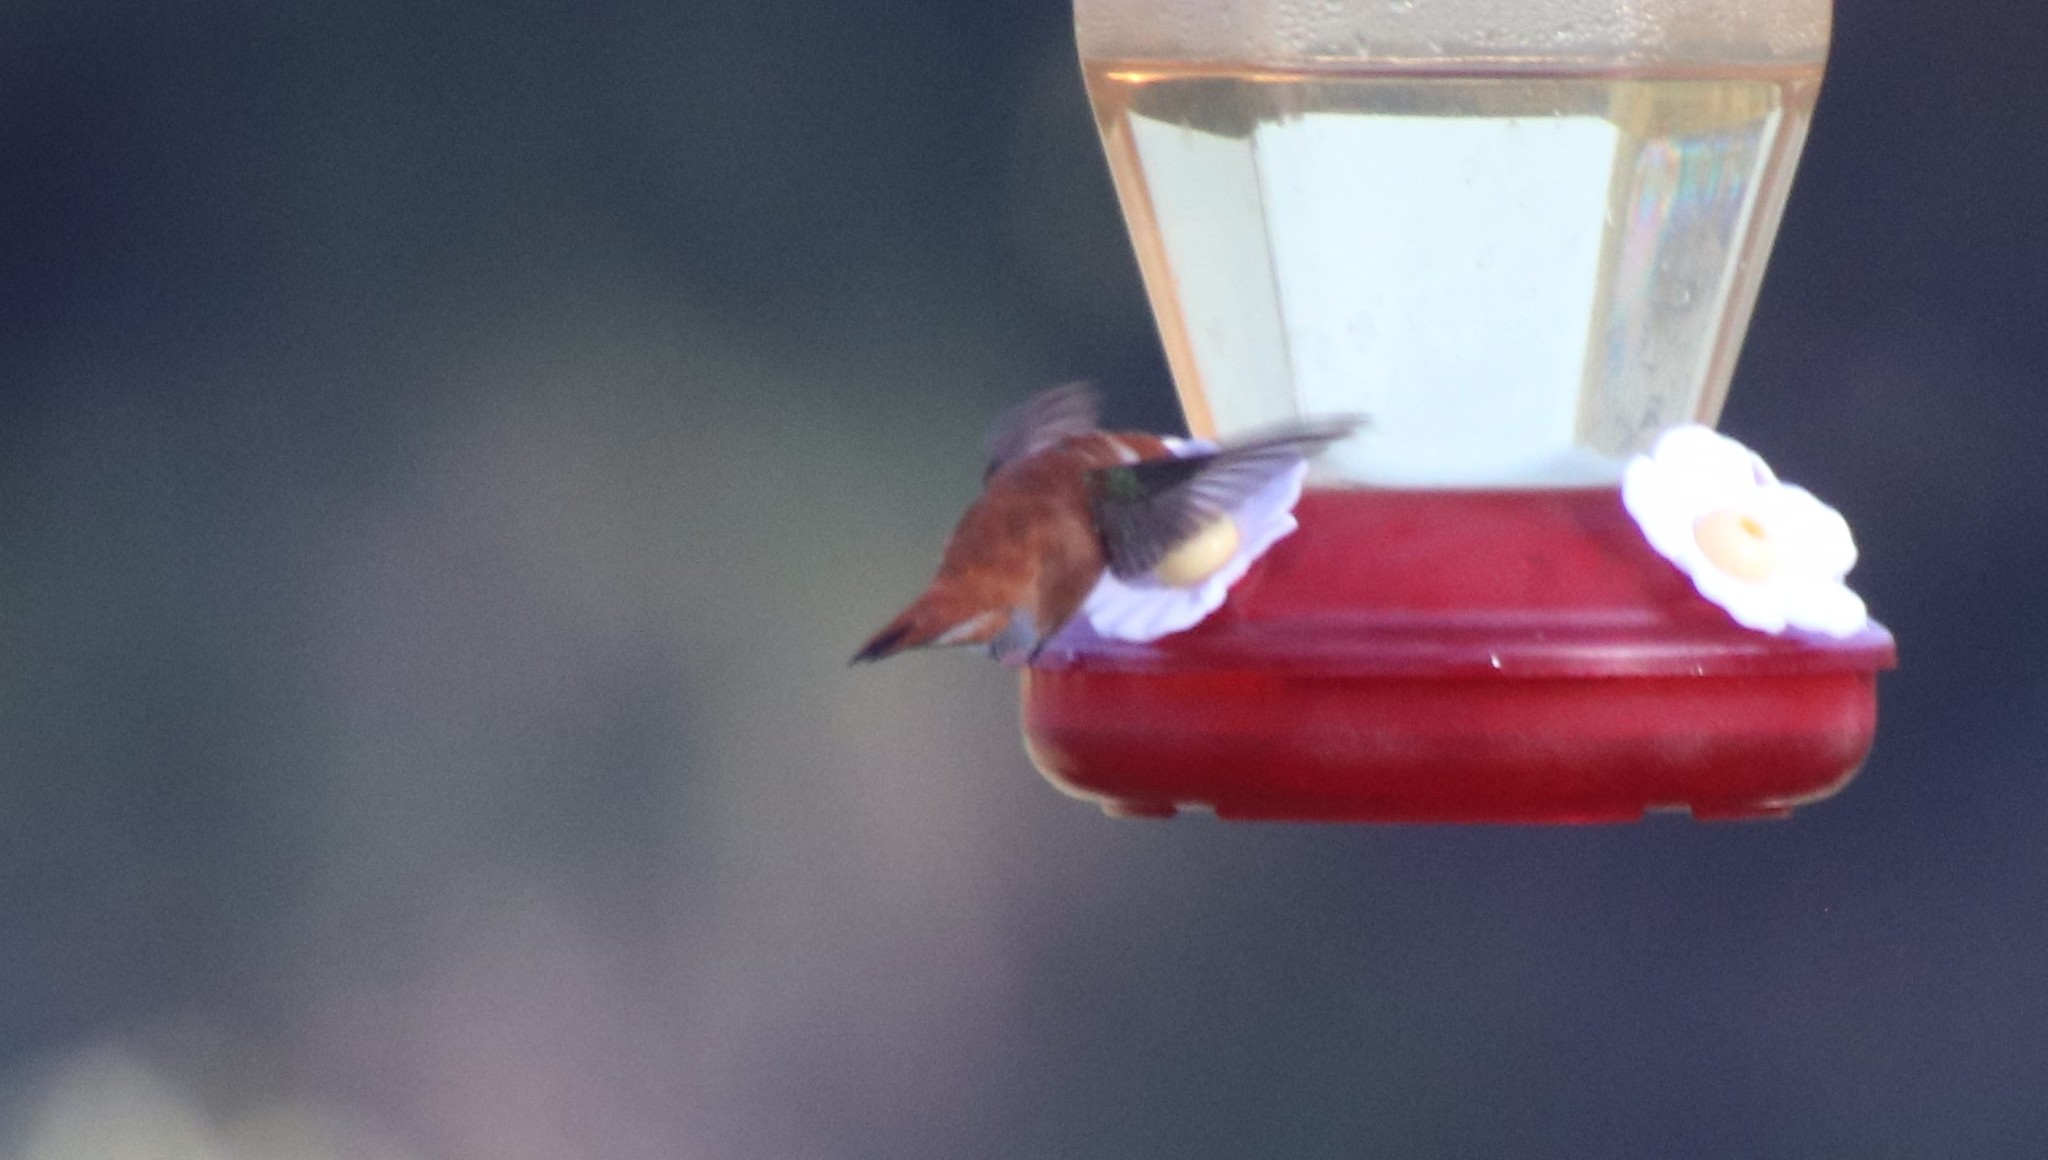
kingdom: Animalia
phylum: Chordata
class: Aves
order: Apodiformes
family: Trochilidae
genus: Selasphorus
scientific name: Selasphorus rufus
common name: Rufous hummingbird
